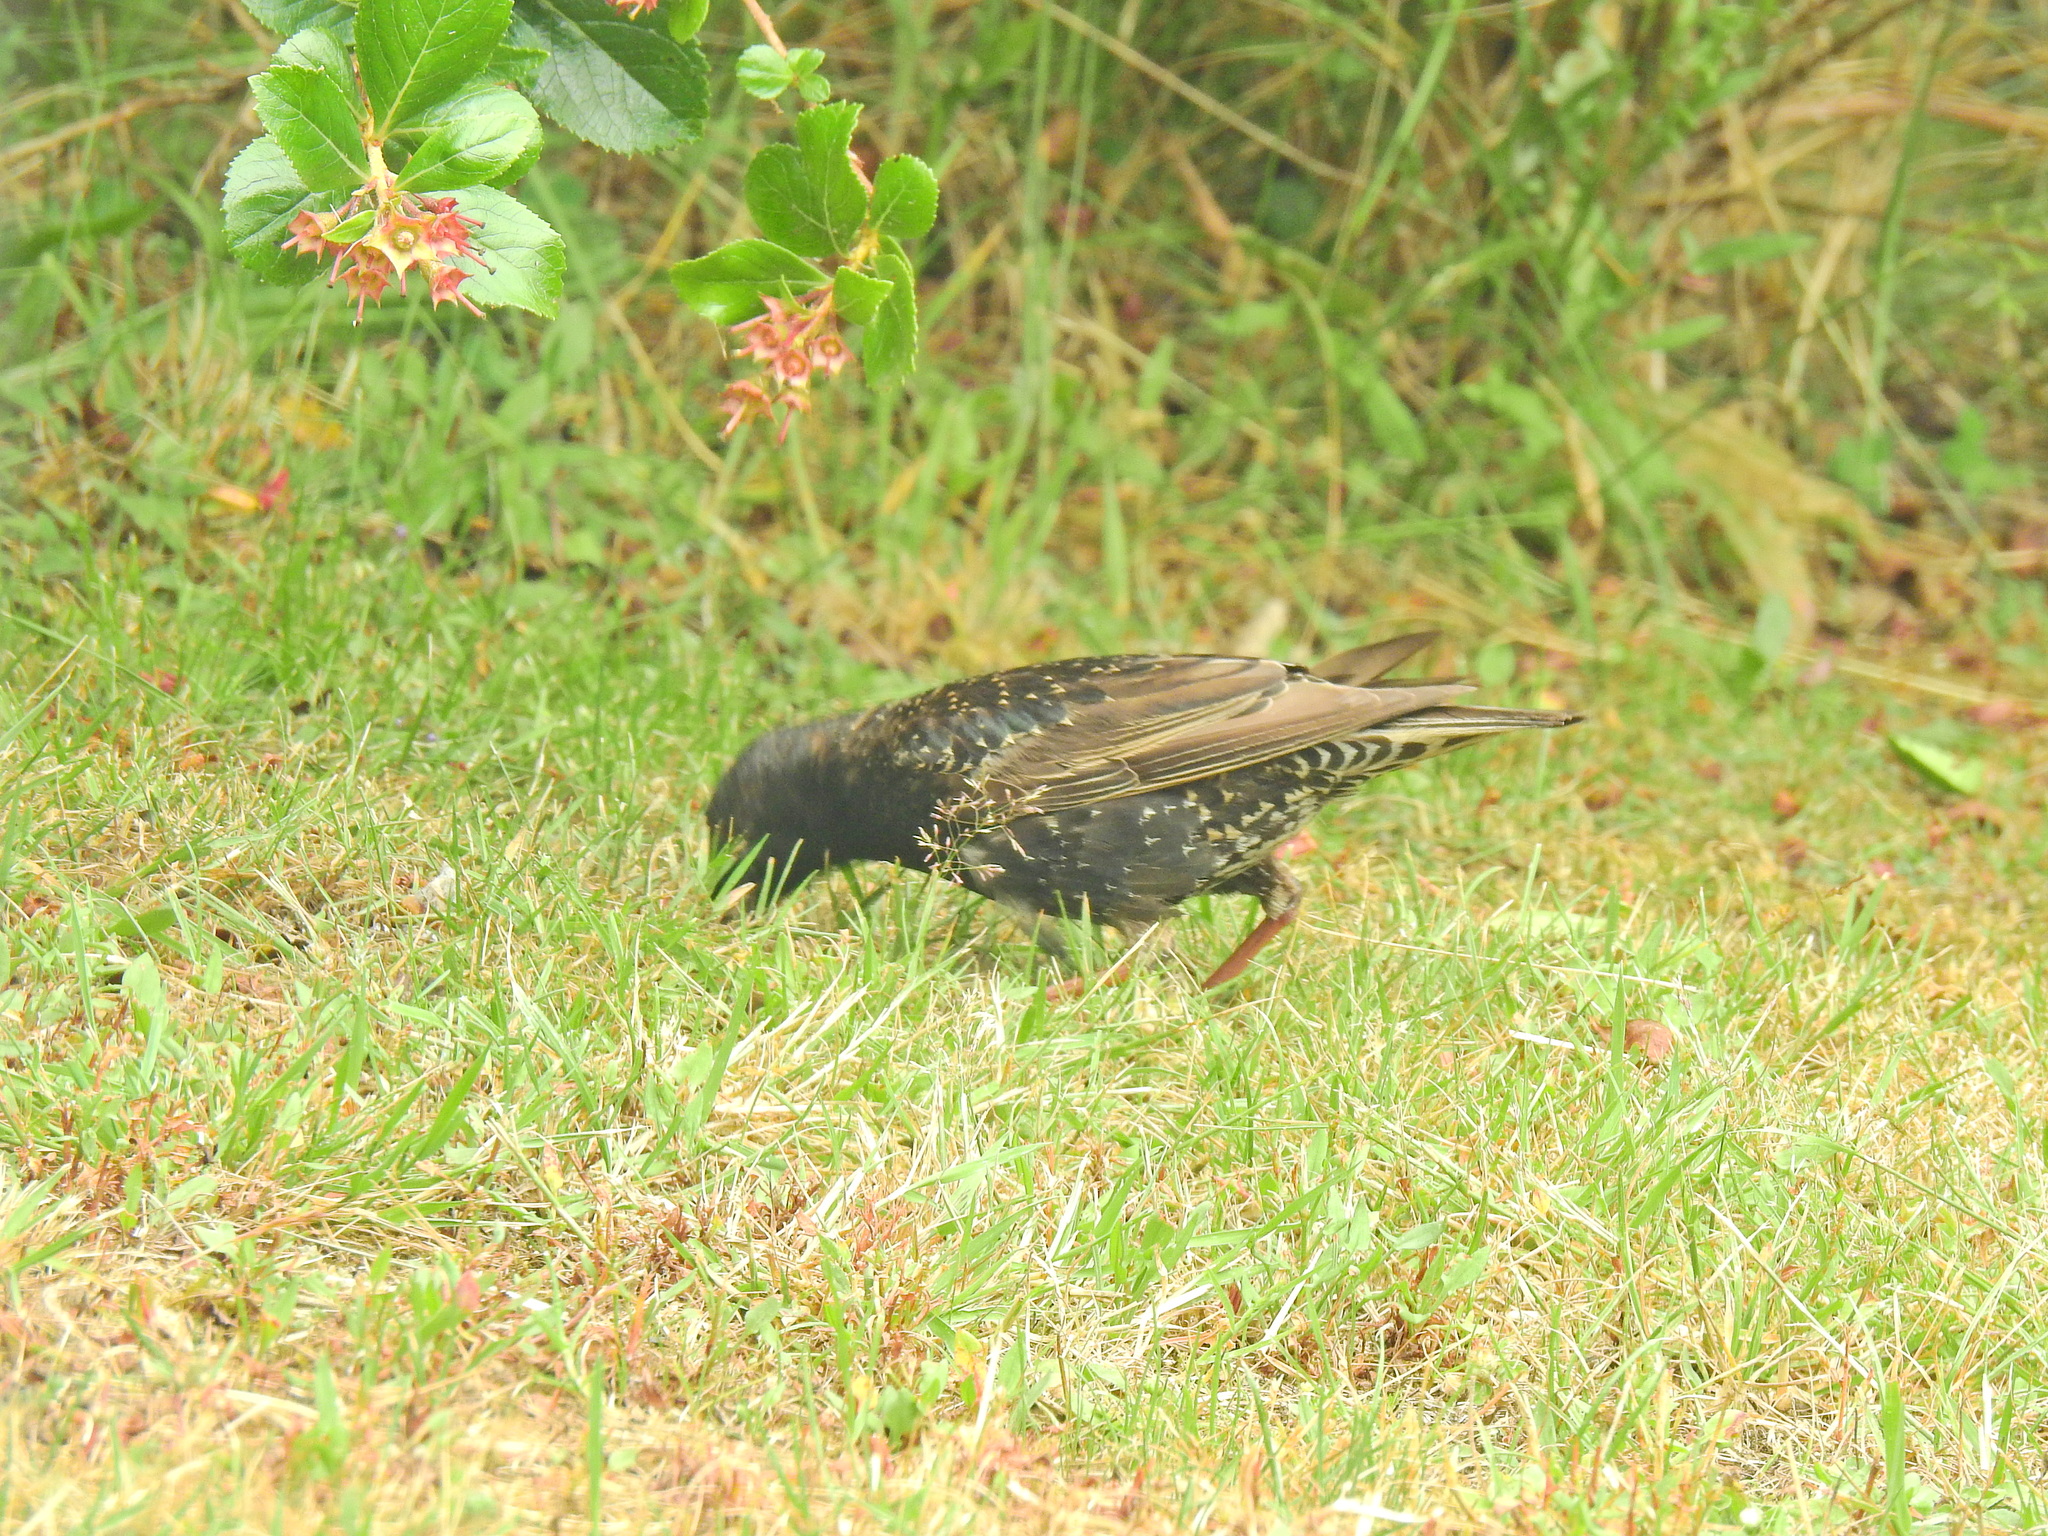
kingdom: Animalia
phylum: Chordata
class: Aves
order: Passeriformes
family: Sturnidae
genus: Sturnus
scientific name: Sturnus vulgaris
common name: Common starling
